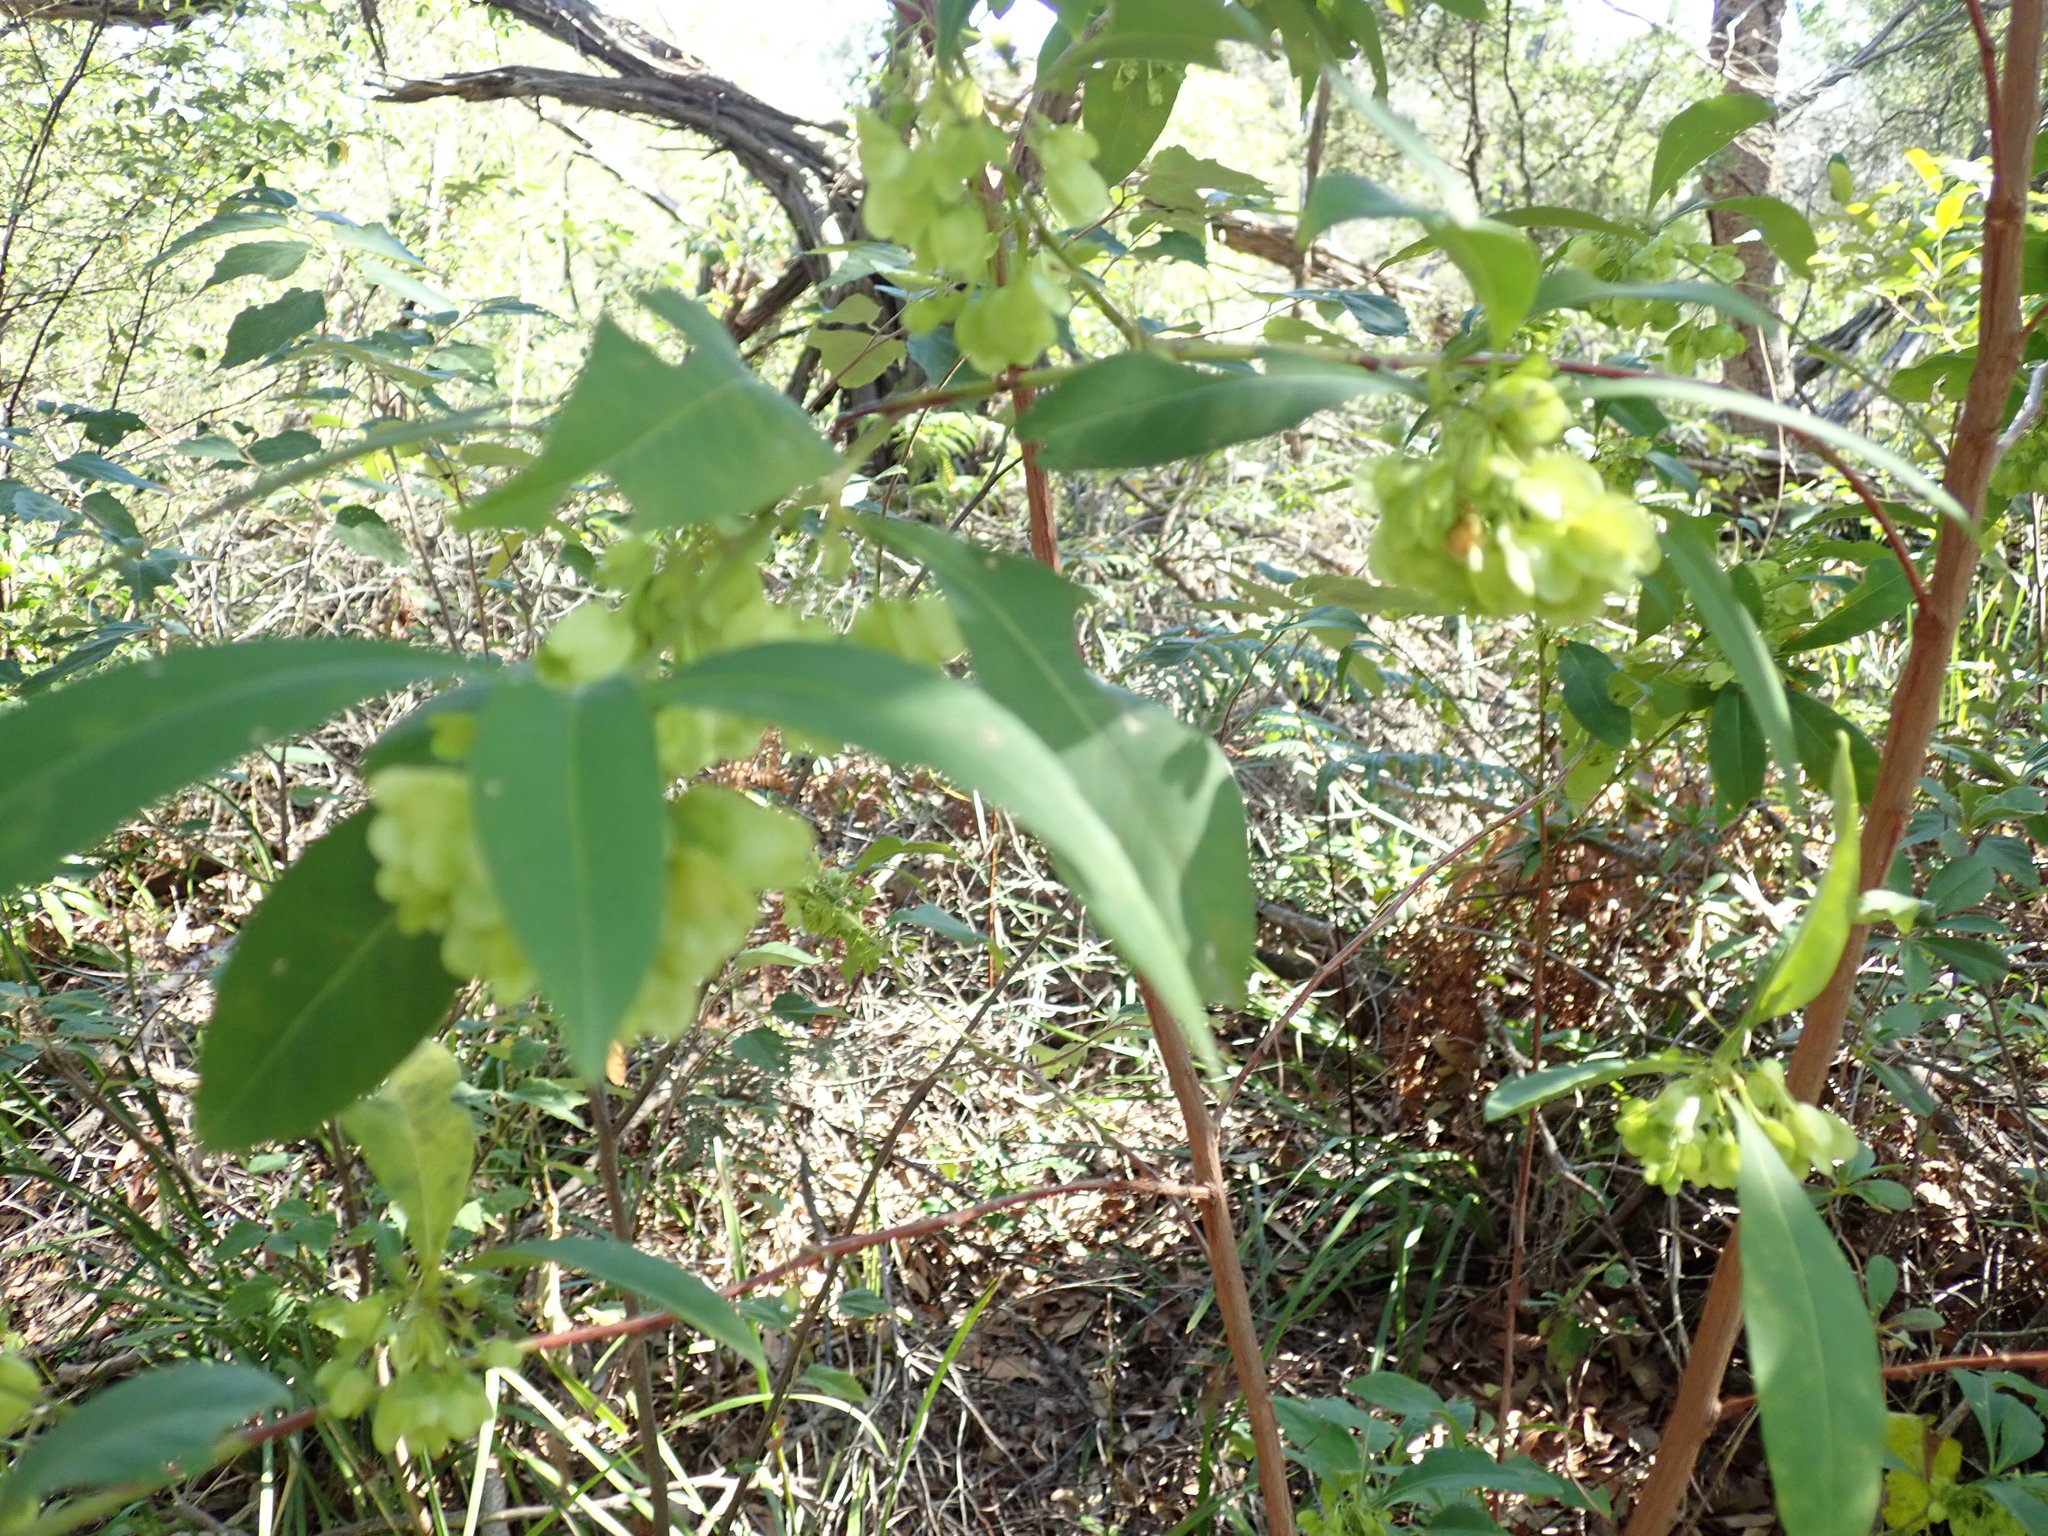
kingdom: Plantae
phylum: Tracheophyta
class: Magnoliopsida
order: Sapindales
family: Sapindaceae
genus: Dodonaea
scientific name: Dodonaea triquetra
